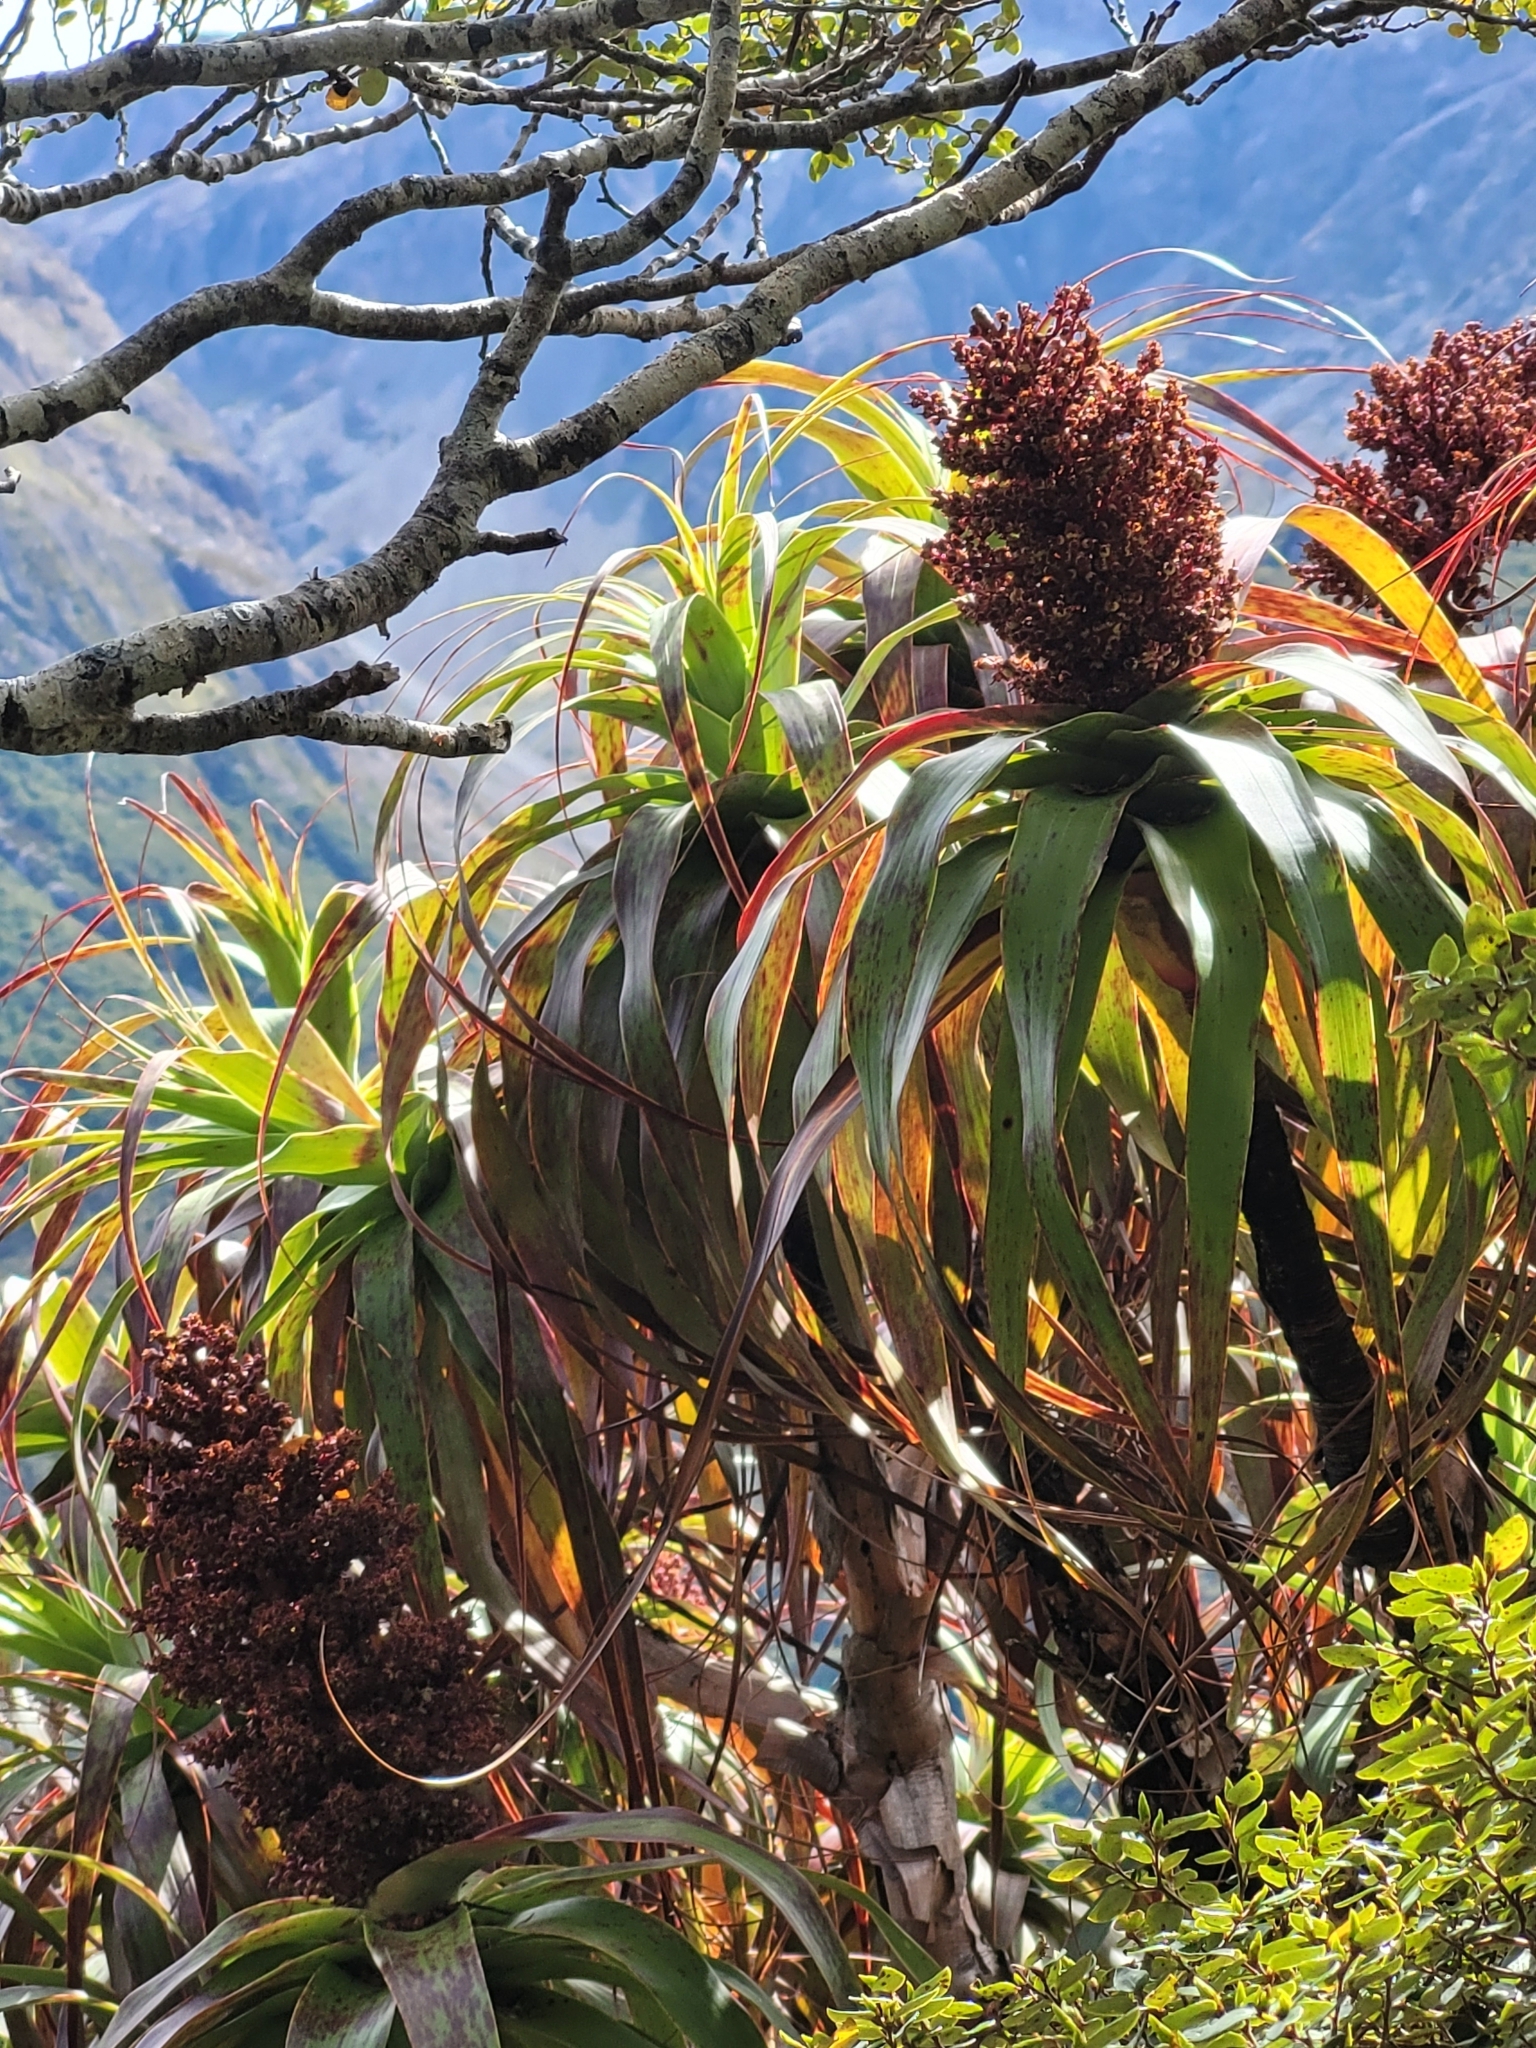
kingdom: Plantae
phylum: Tracheophyta
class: Magnoliopsida
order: Ericales
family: Ericaceae
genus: Dracophyllum
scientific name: Dracophyllum traversii
